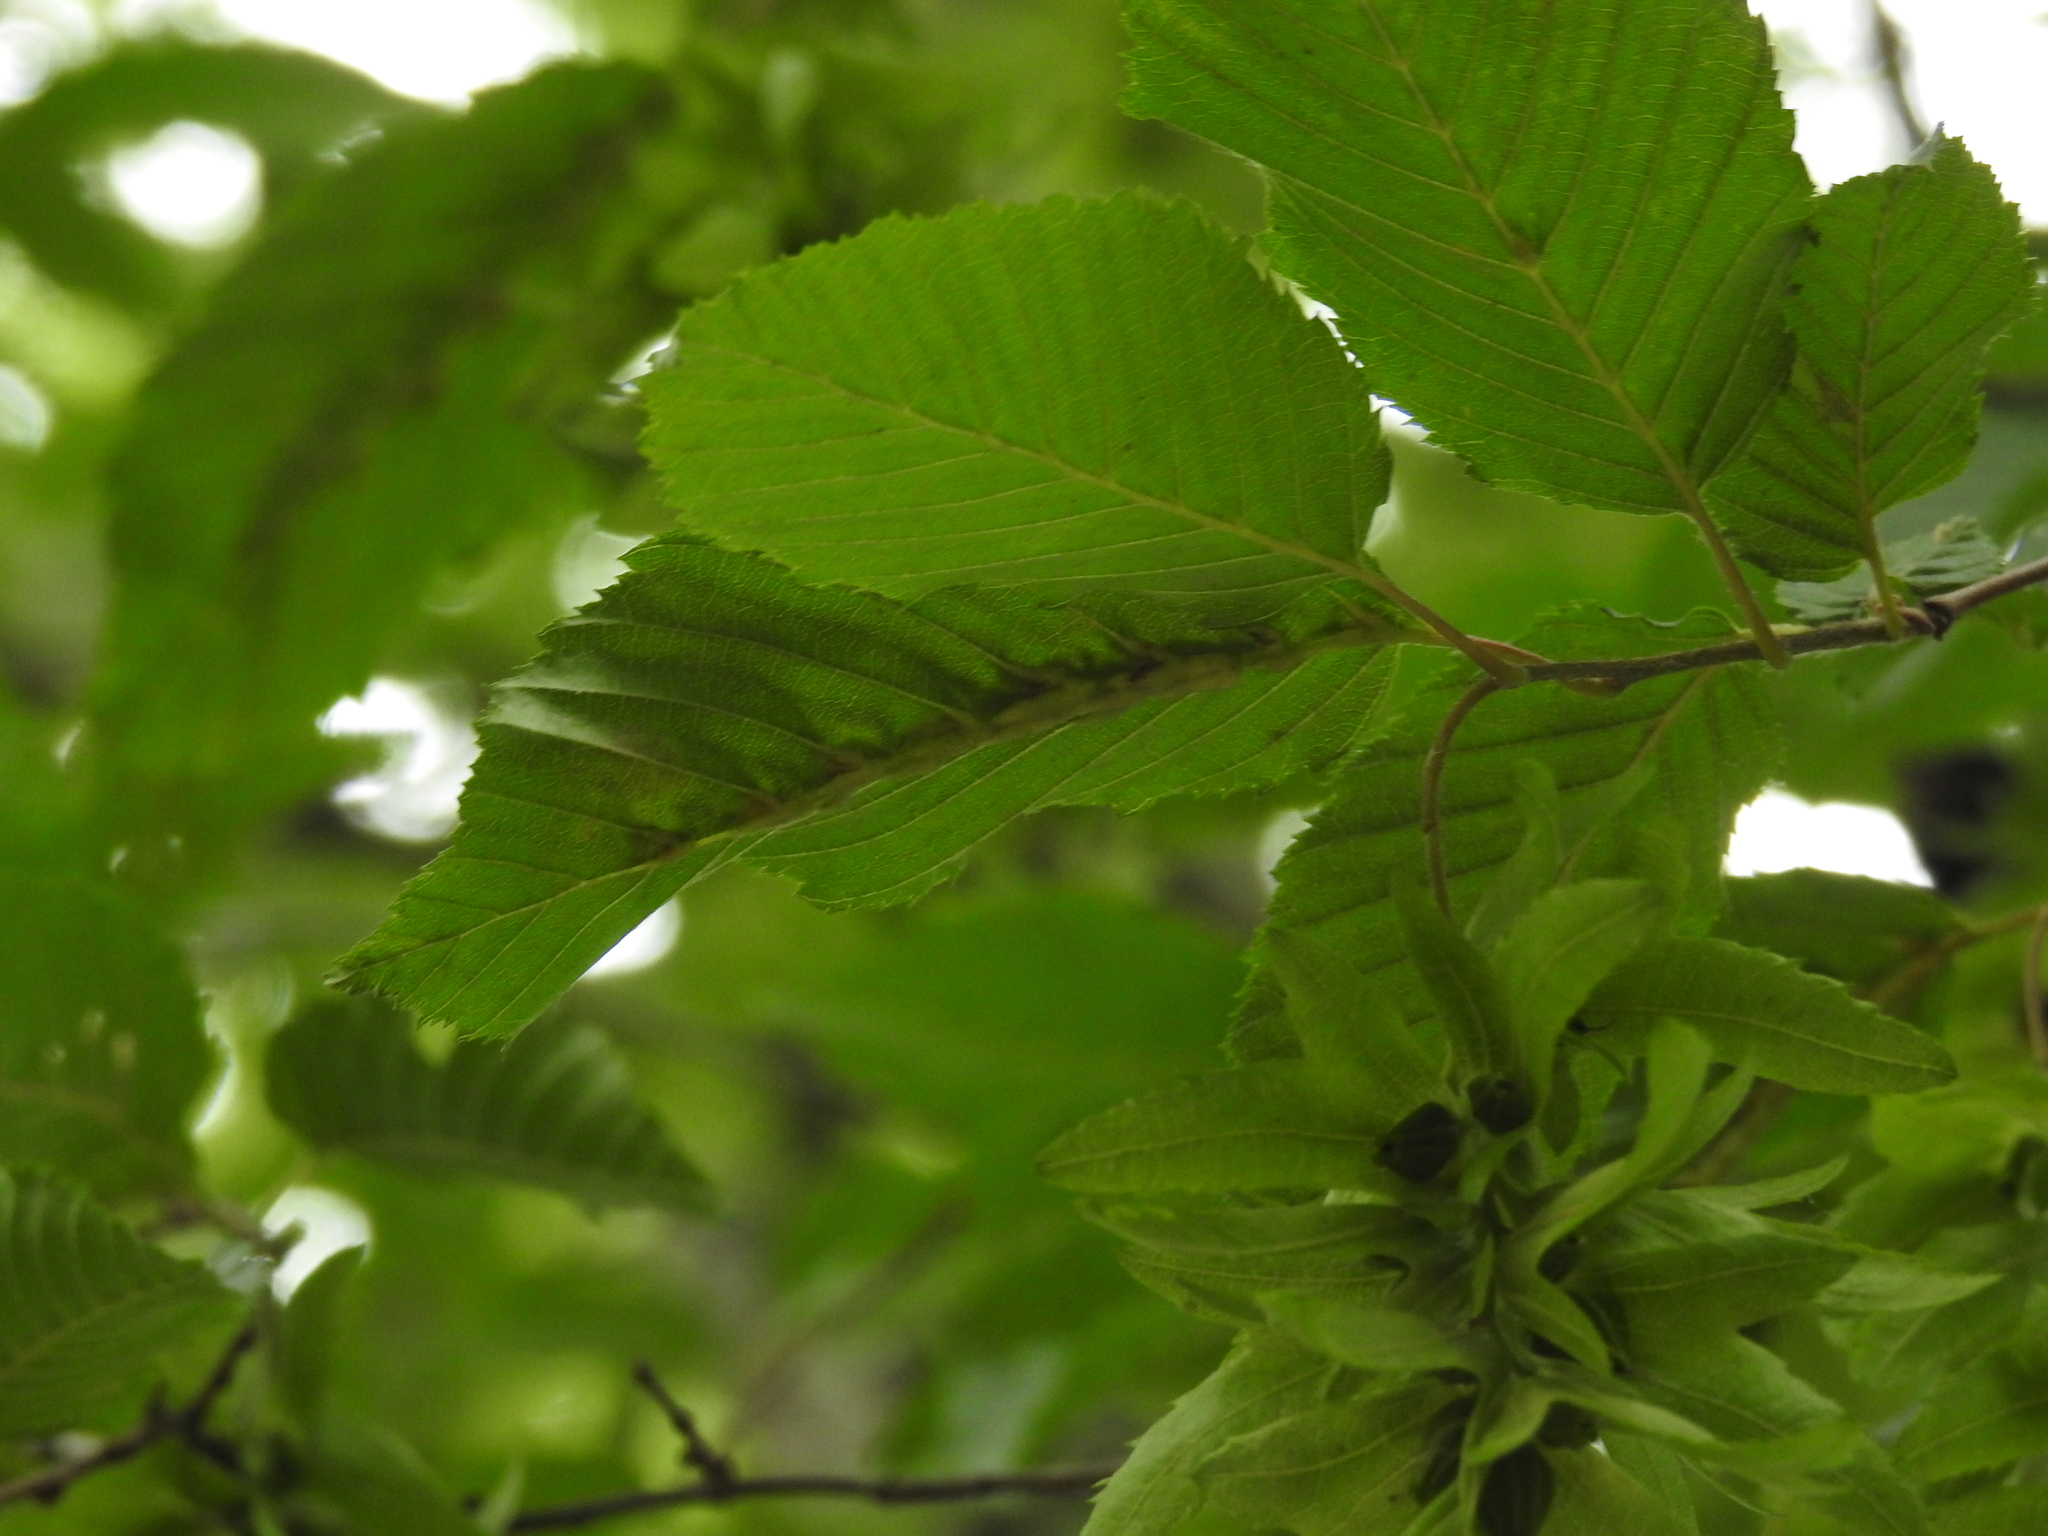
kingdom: Animalia
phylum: Arthropoda
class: Insecta
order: Diptera
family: Cecidomyiidae
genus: Zygiobia
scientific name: Zygiobia carpini
